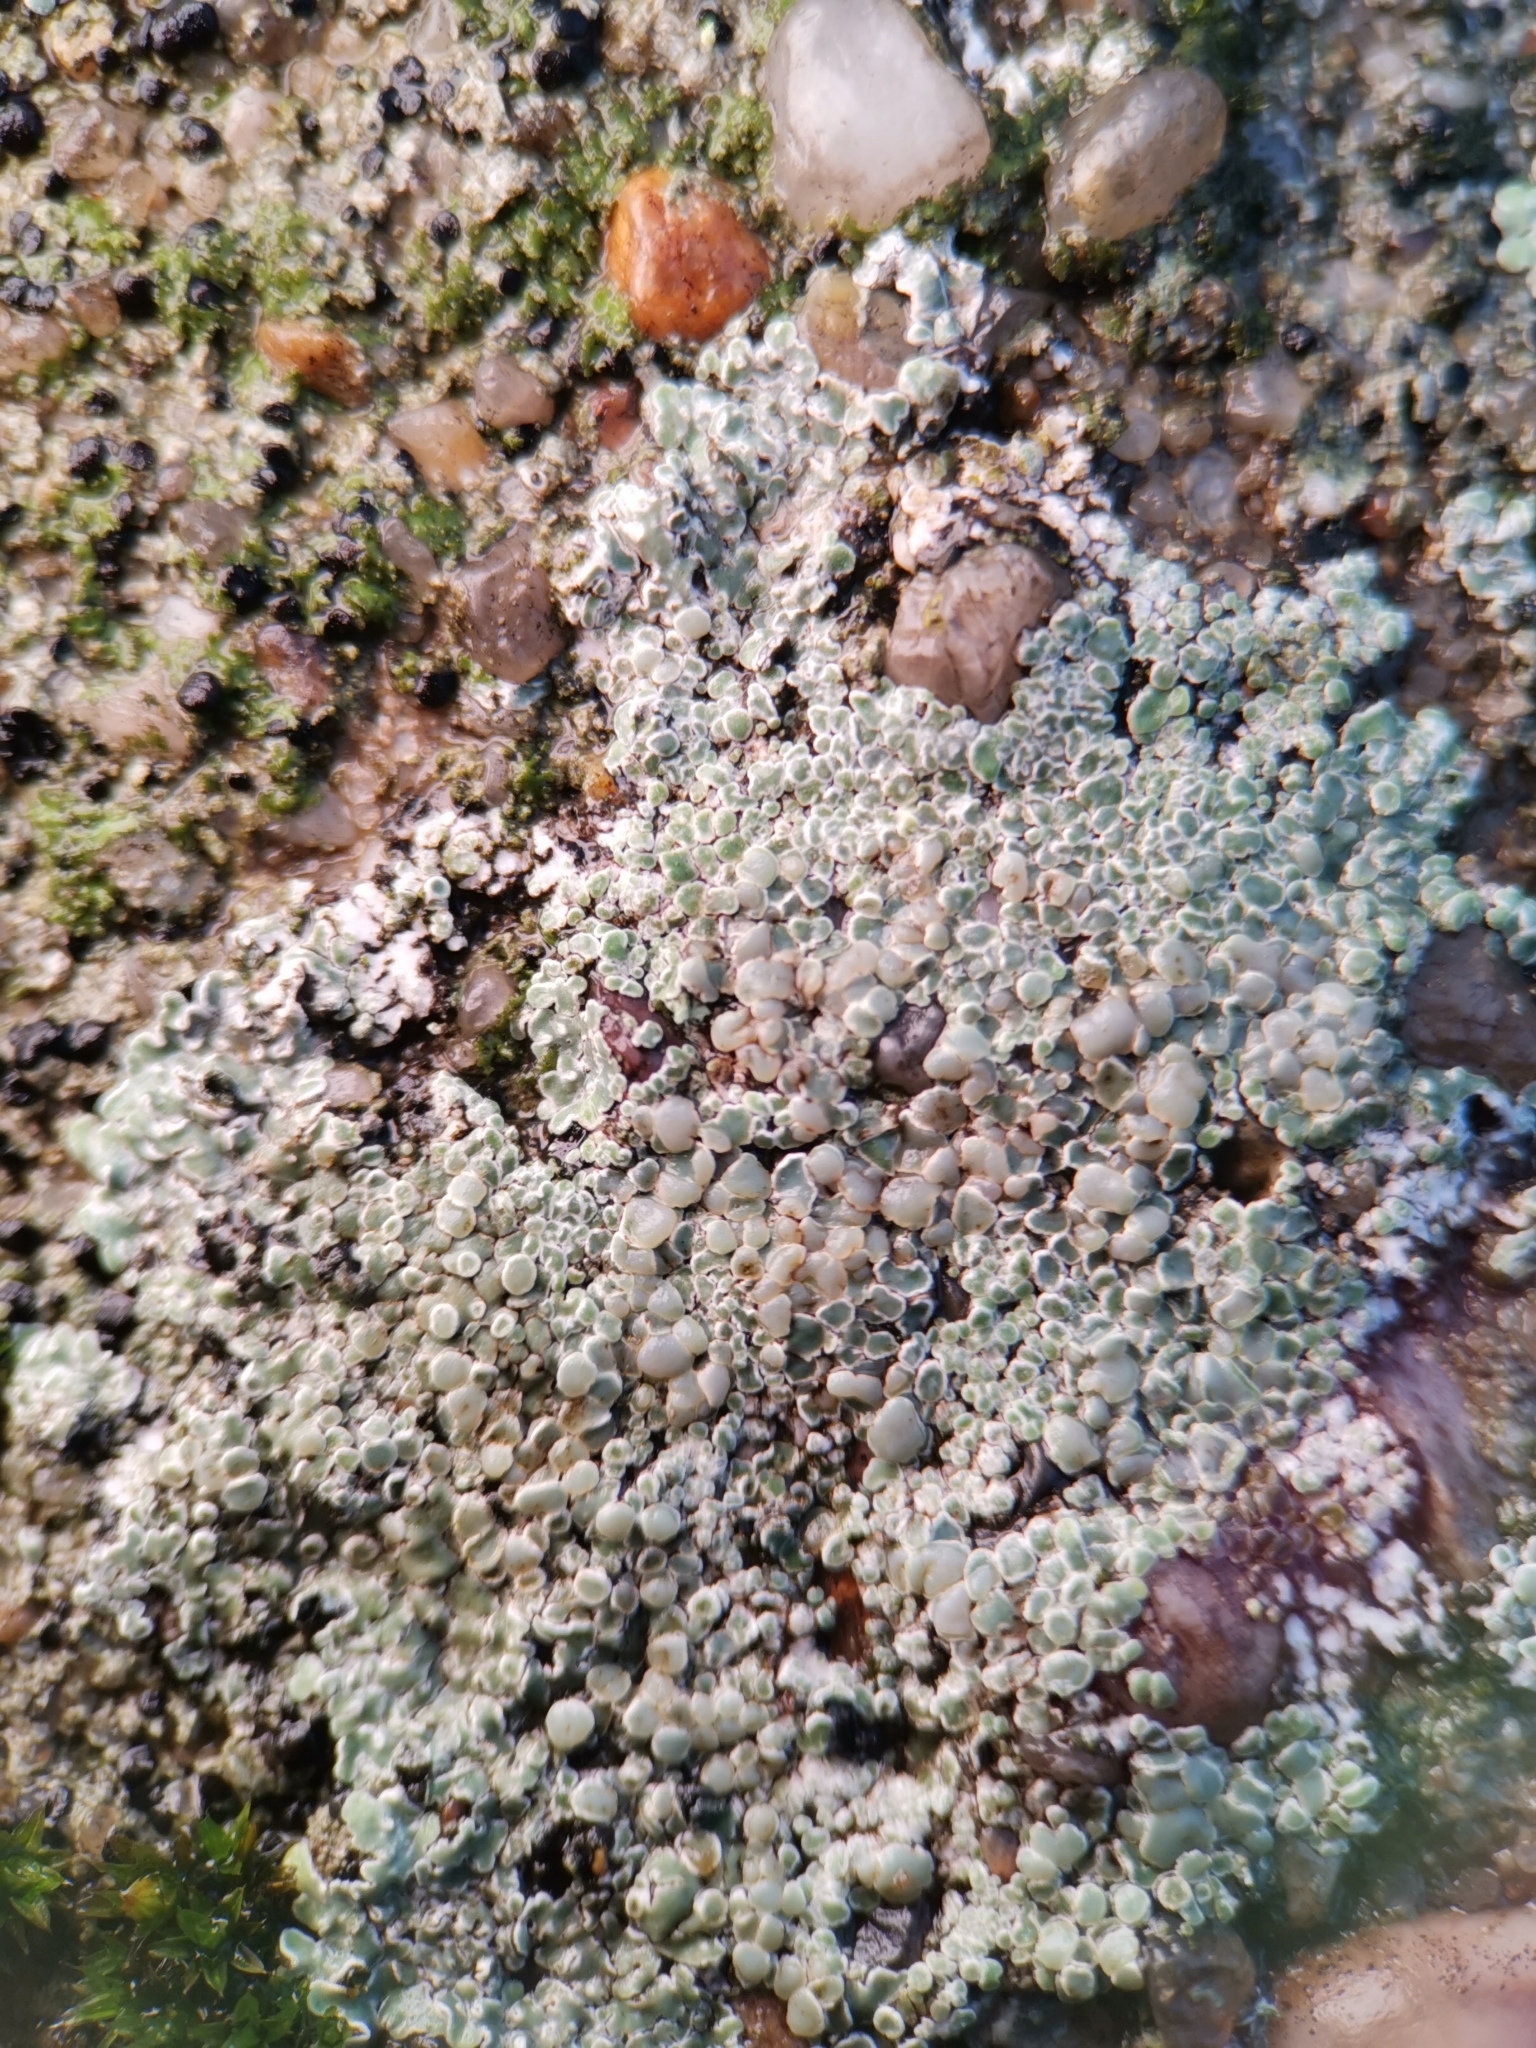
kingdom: Fungi
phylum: Ascomycota
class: Lecanoromycetes
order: Lecanorales
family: Lecanoraceae
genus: Protoparmeliopsis
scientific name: Protoparmeliopsis muralis
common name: Stonewall rim lichen
